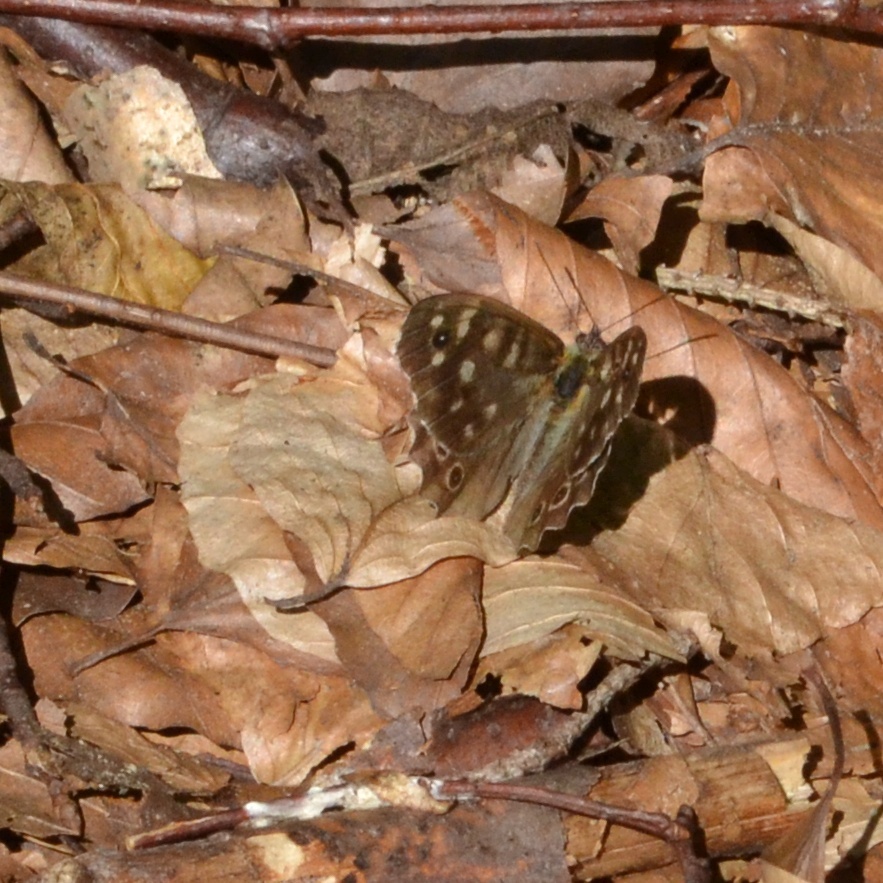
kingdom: Animalia
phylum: Arthropoda
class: Insecta
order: Lepidoptera
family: Nymphalidae
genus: Pararge
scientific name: Pararge aegeria
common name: Speckled wood
